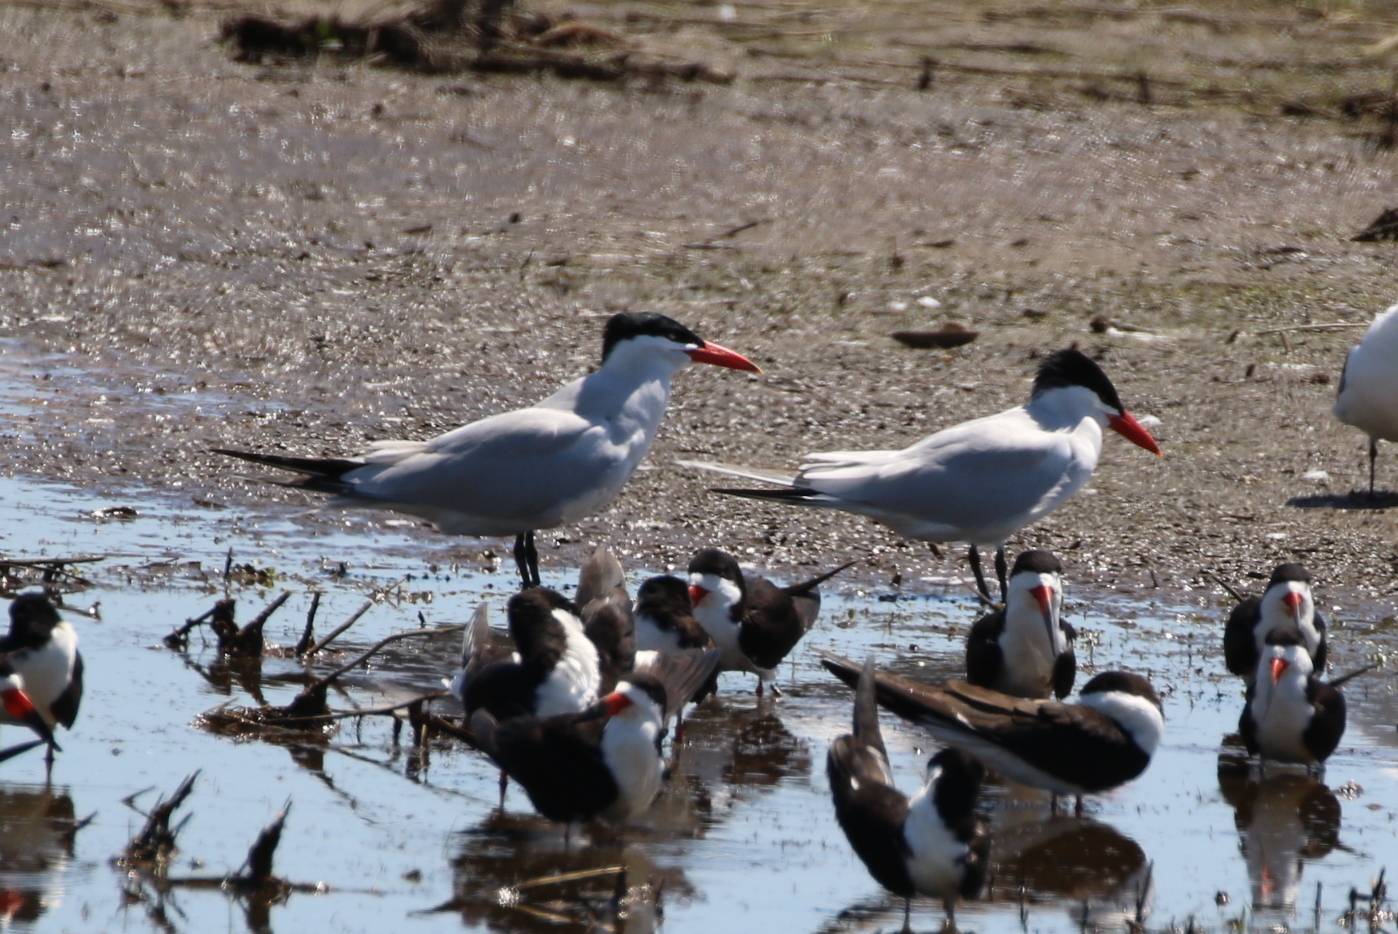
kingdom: Animalia
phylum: Chordata
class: Aves
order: Charadriiformes
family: Laridae
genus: Hydroprogne
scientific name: Hydroprogne caspia
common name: Caspian tern
